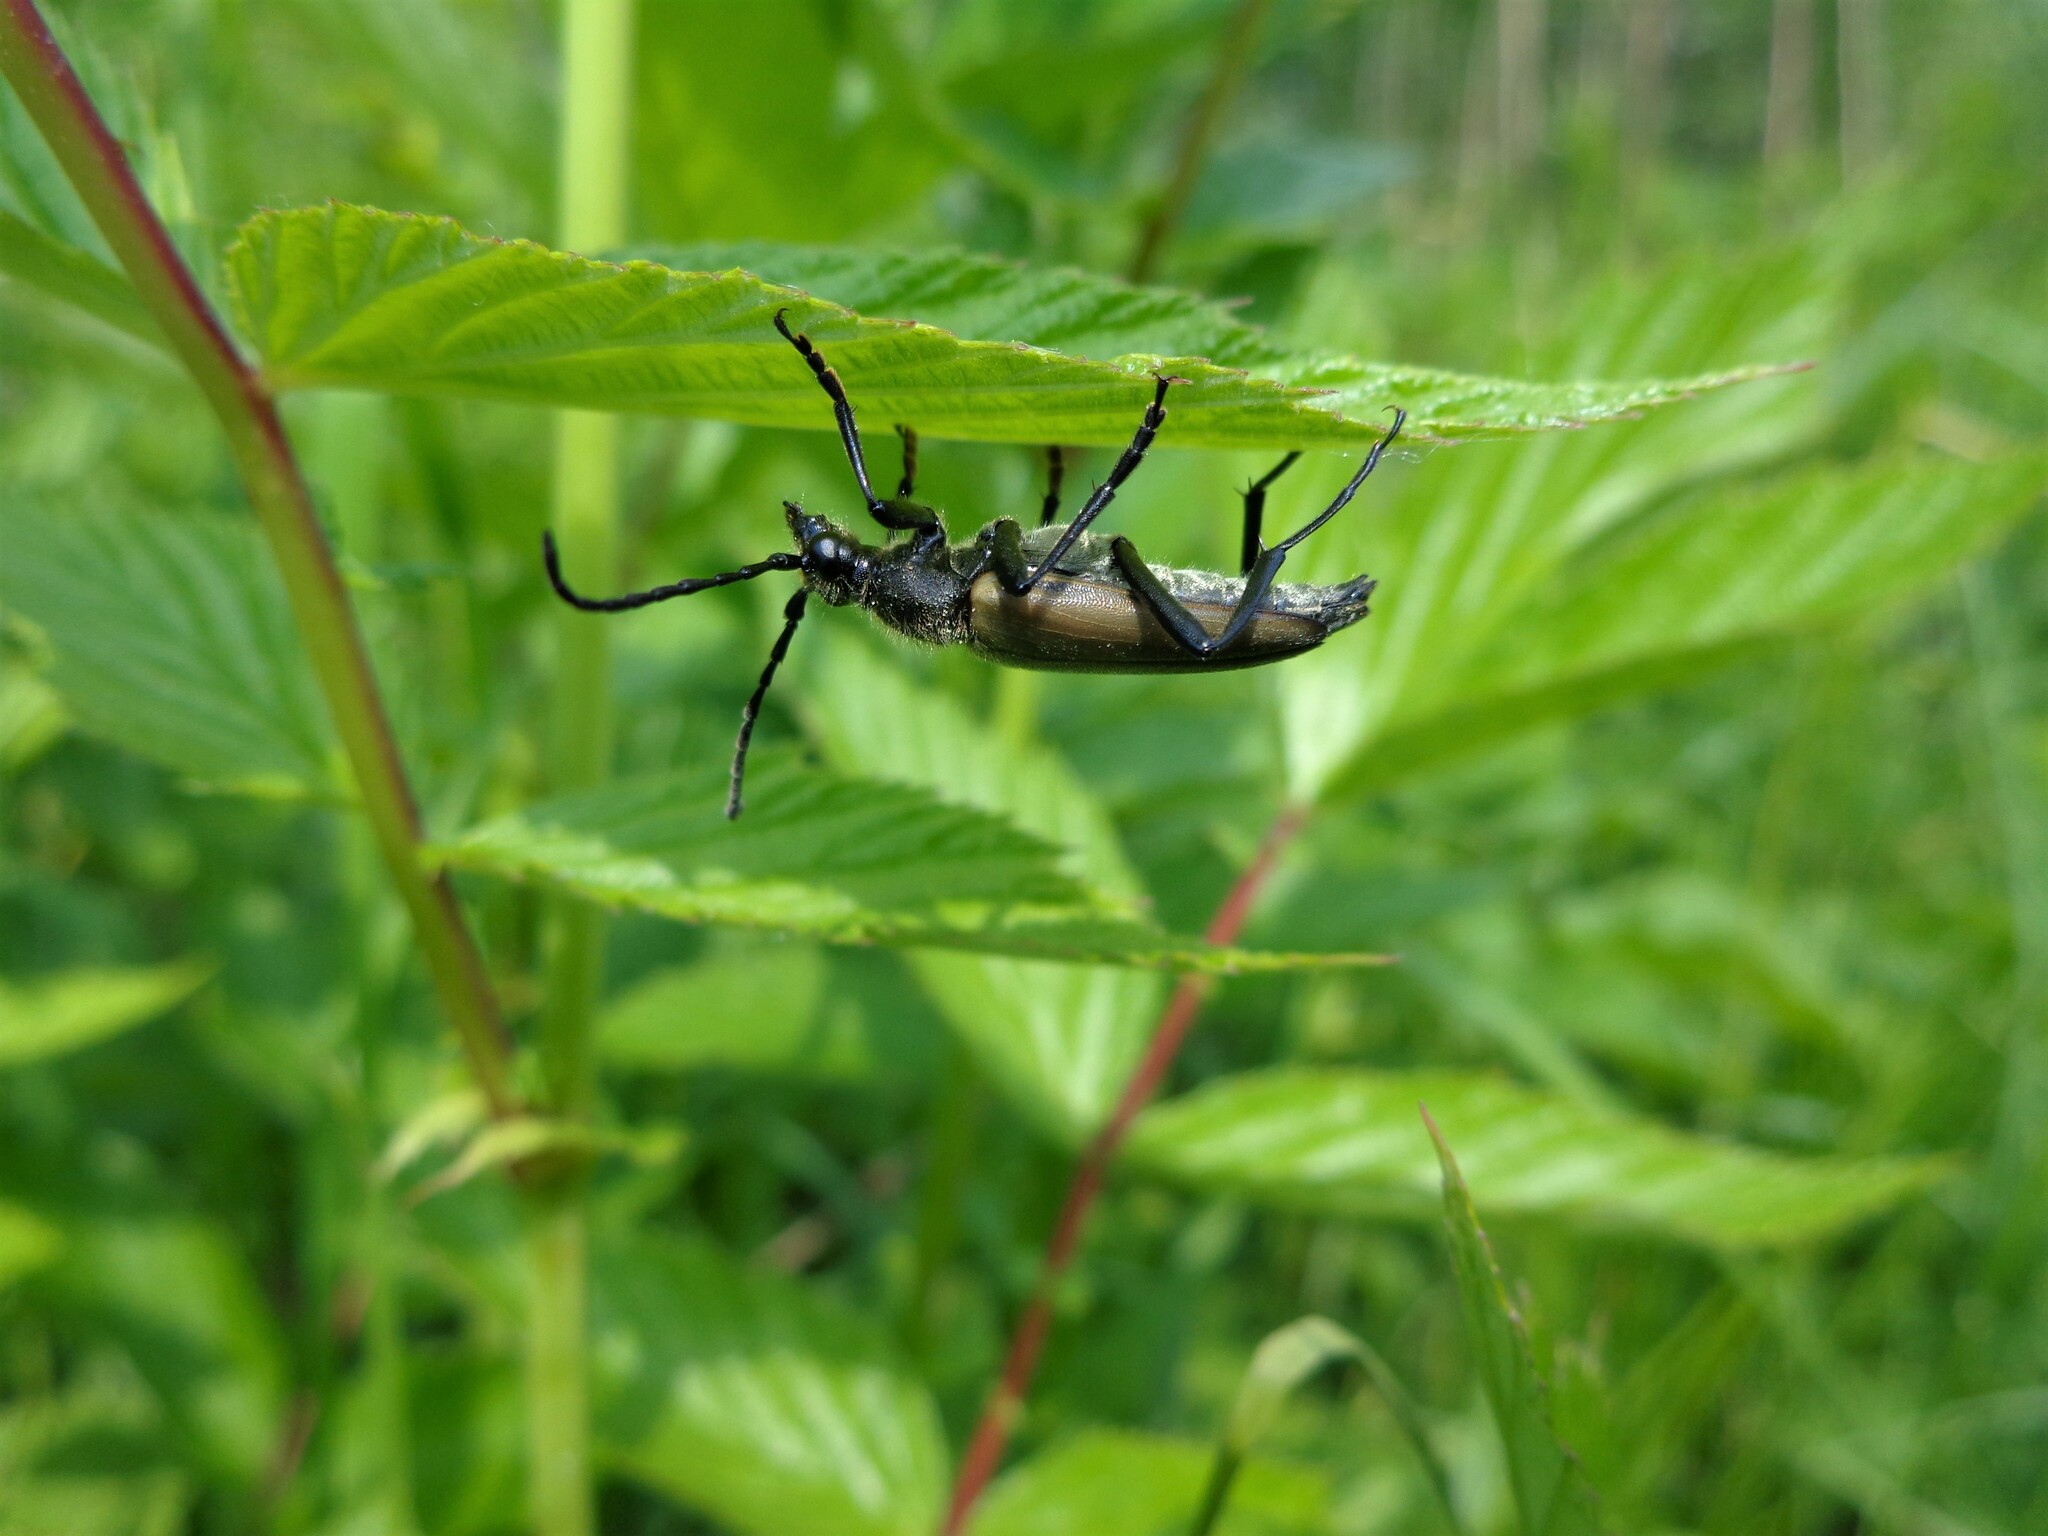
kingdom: Animalia
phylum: Arthropoda
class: Insecta
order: Coleoptera
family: Cerambycidae
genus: Lepturalia
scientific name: Lepturalia nigripes
